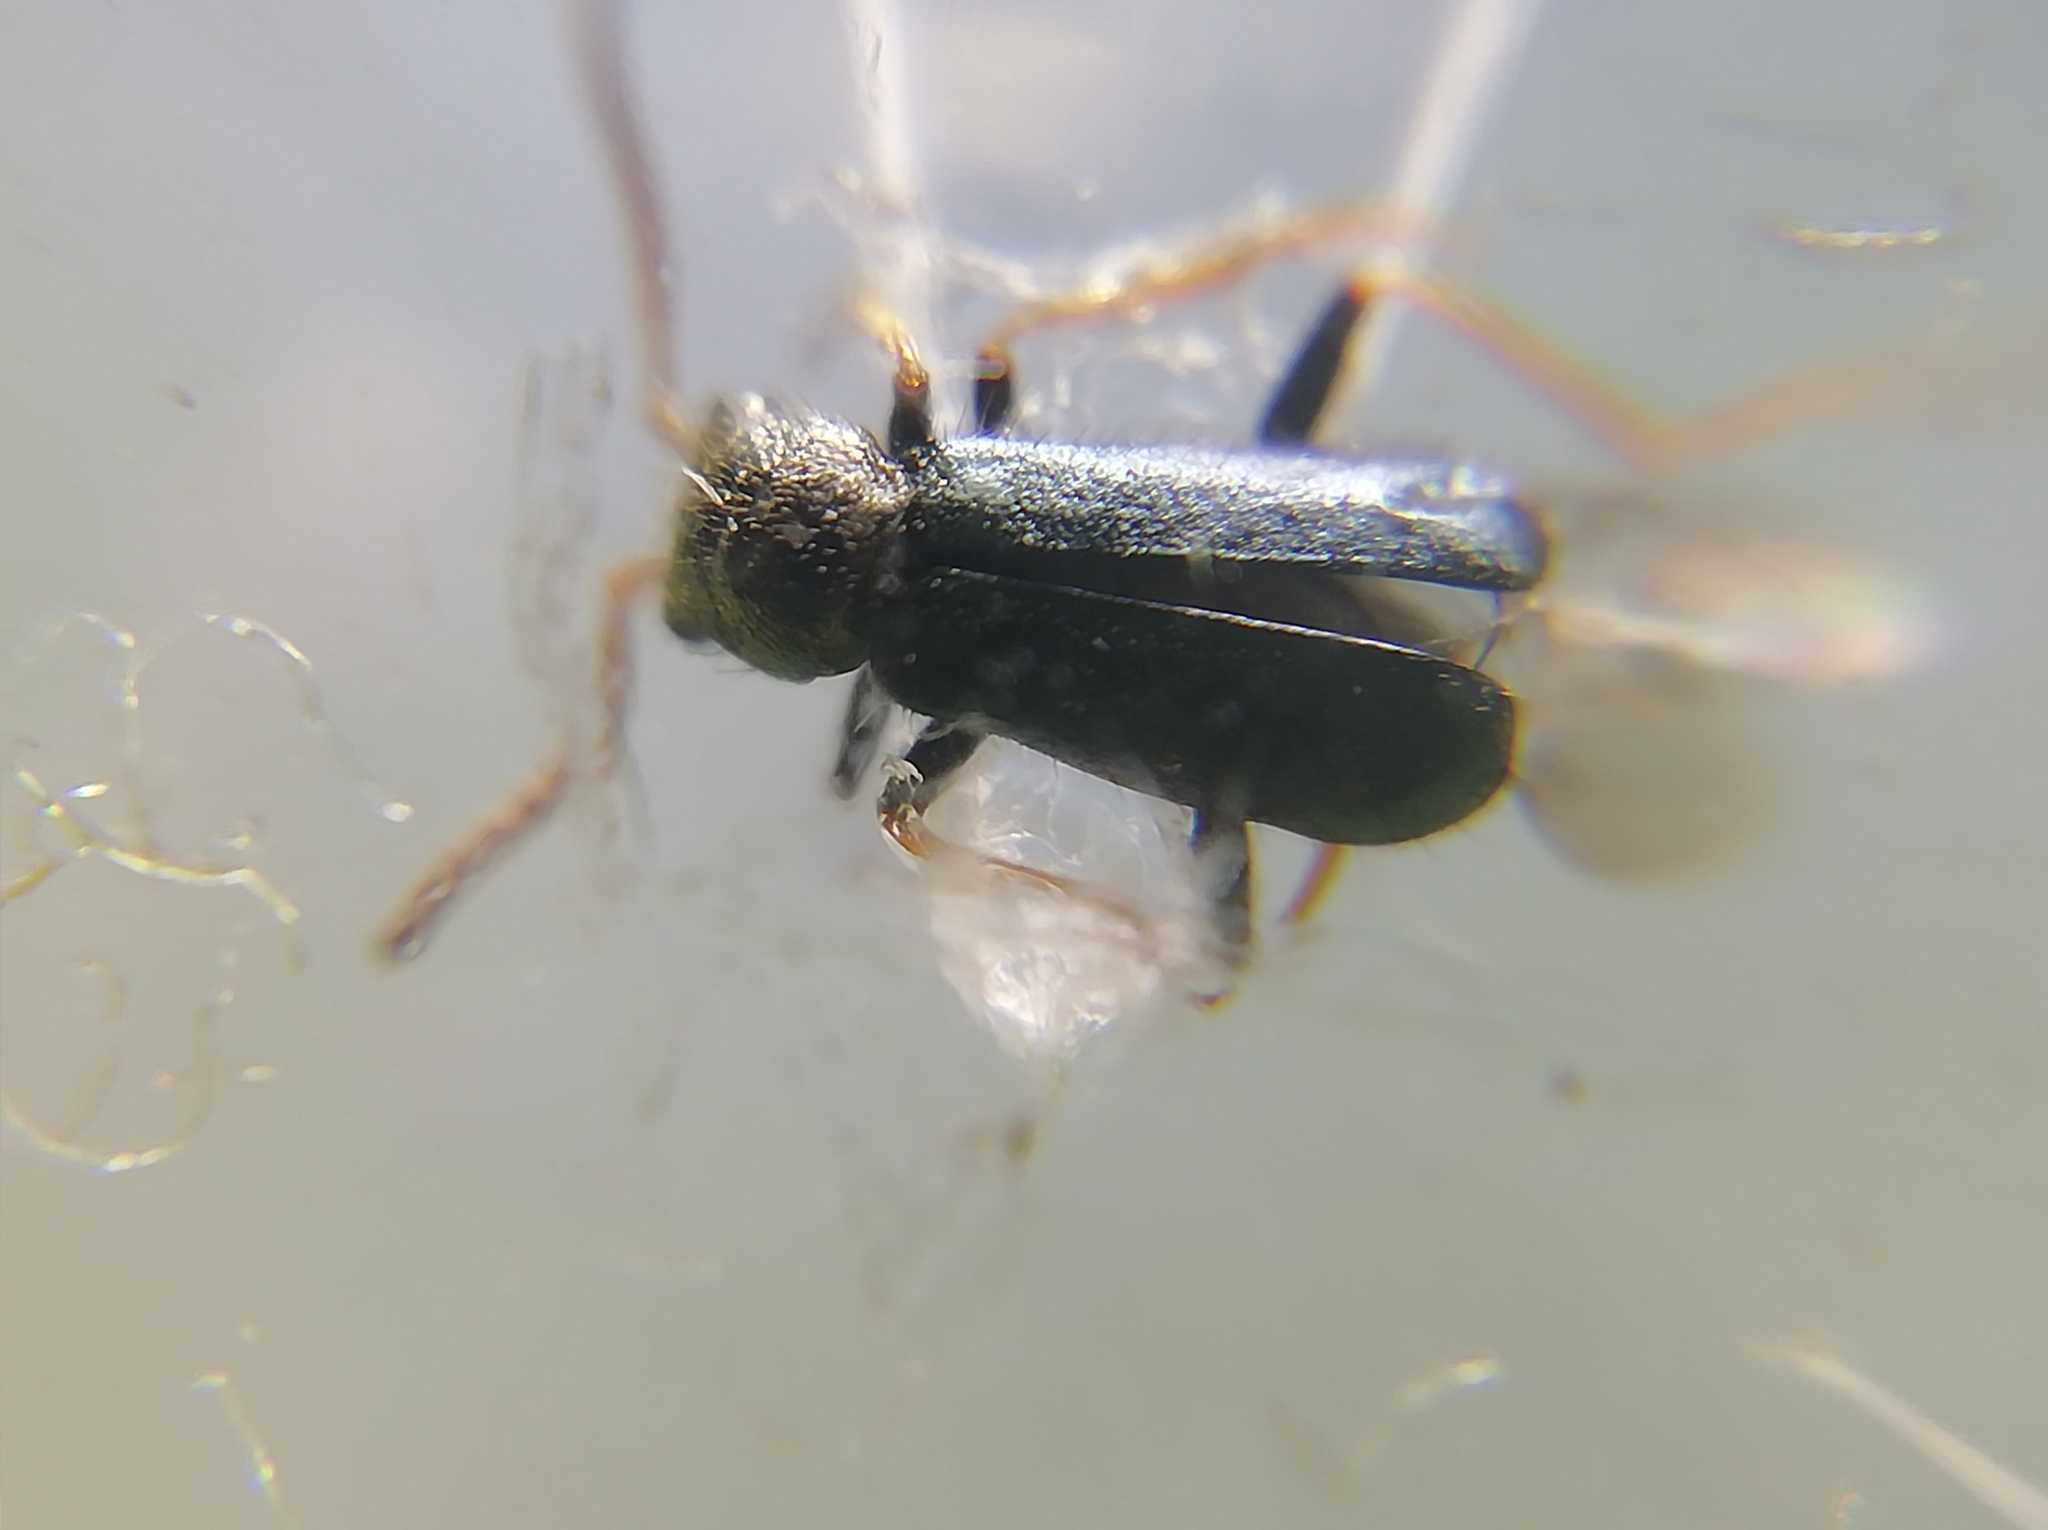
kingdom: Animalia
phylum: Arthropoda
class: Insecta
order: Coleoptera
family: Malachiidae
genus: Apalochrus
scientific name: Apalochrus femoralis
